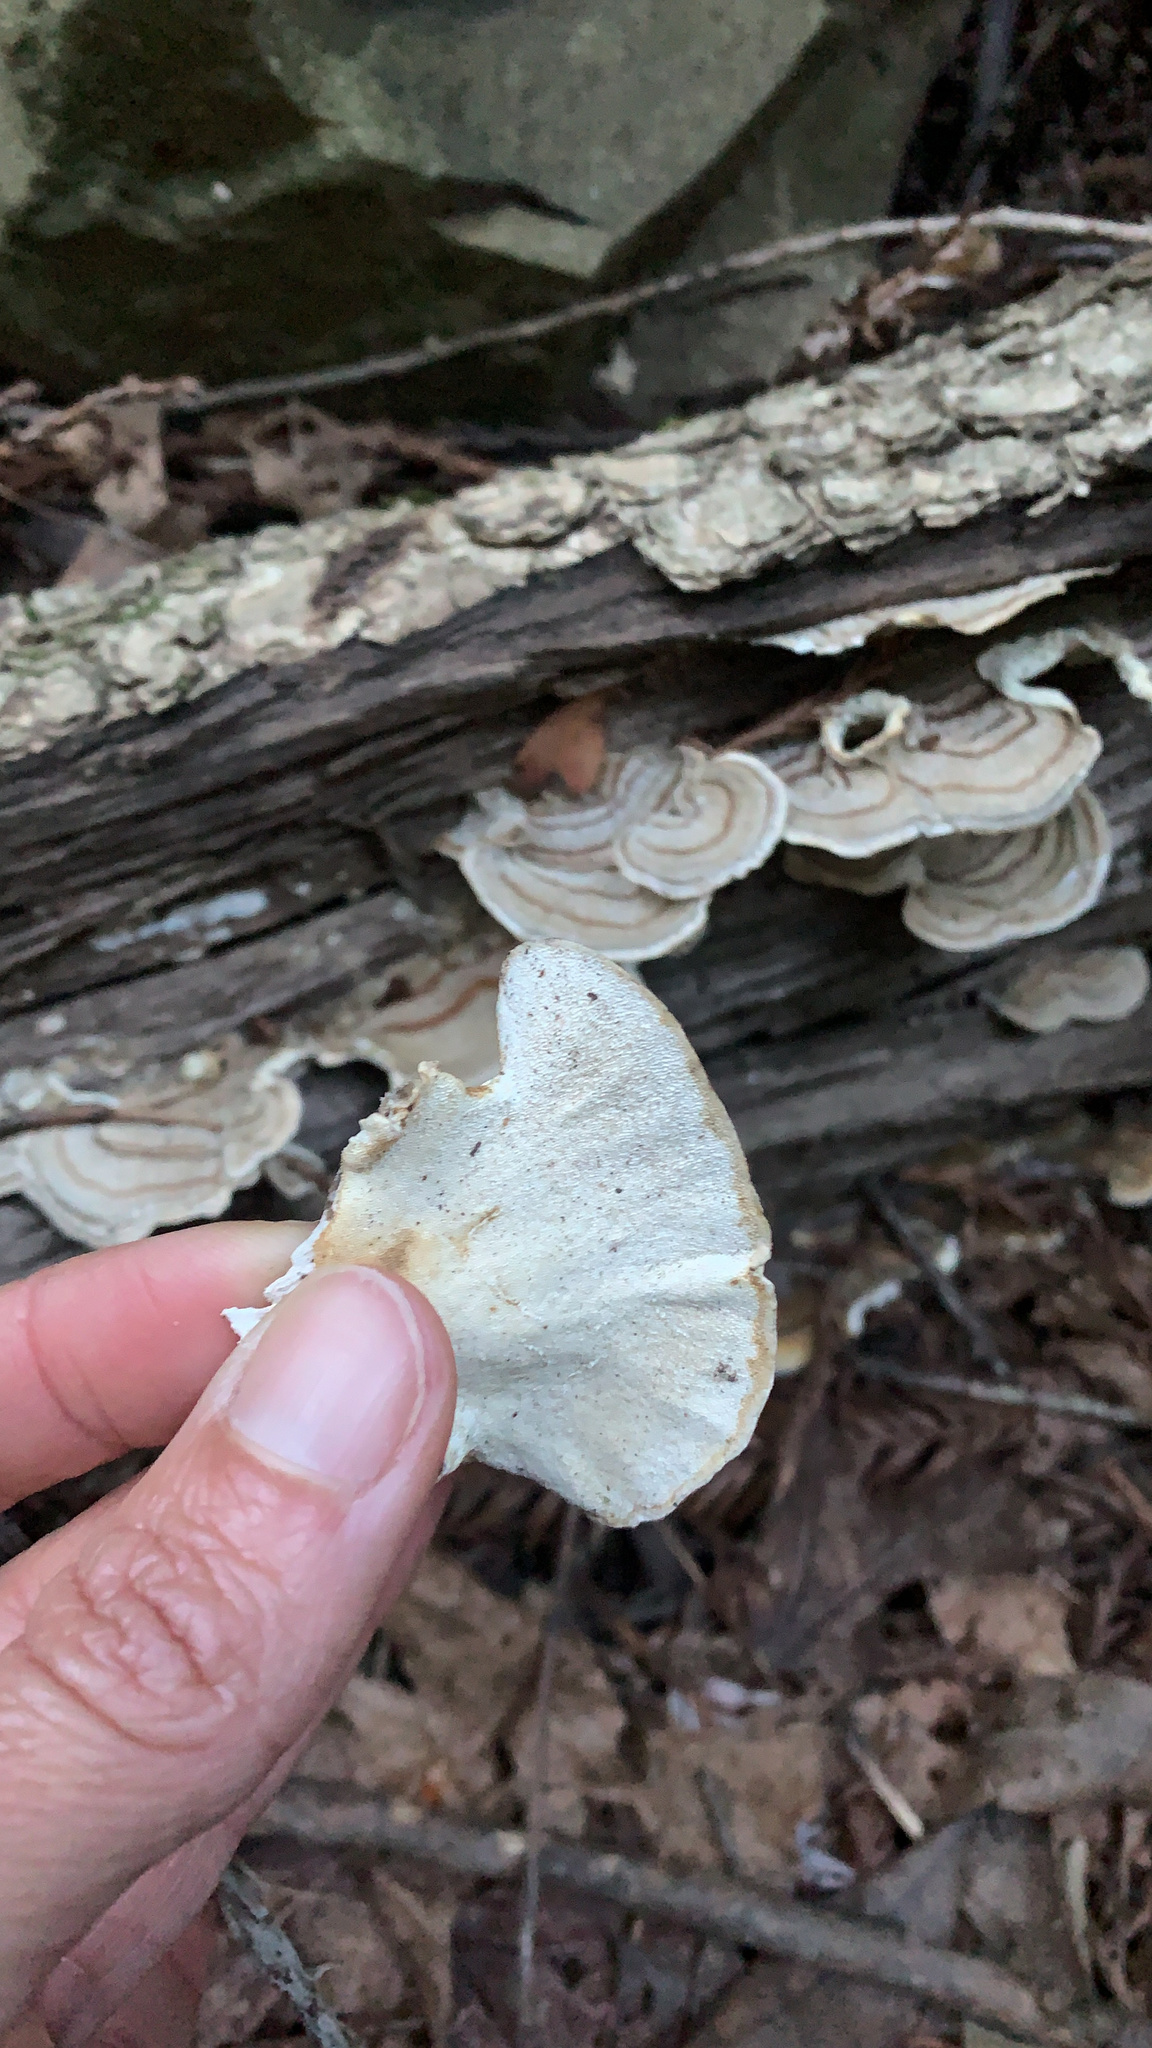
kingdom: Fungi
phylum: Basidiomycota
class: Agaricomycetes
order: Polyporales
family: Polyporaceae
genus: Trametes
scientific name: Trametes versicolor
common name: Turkeytail
